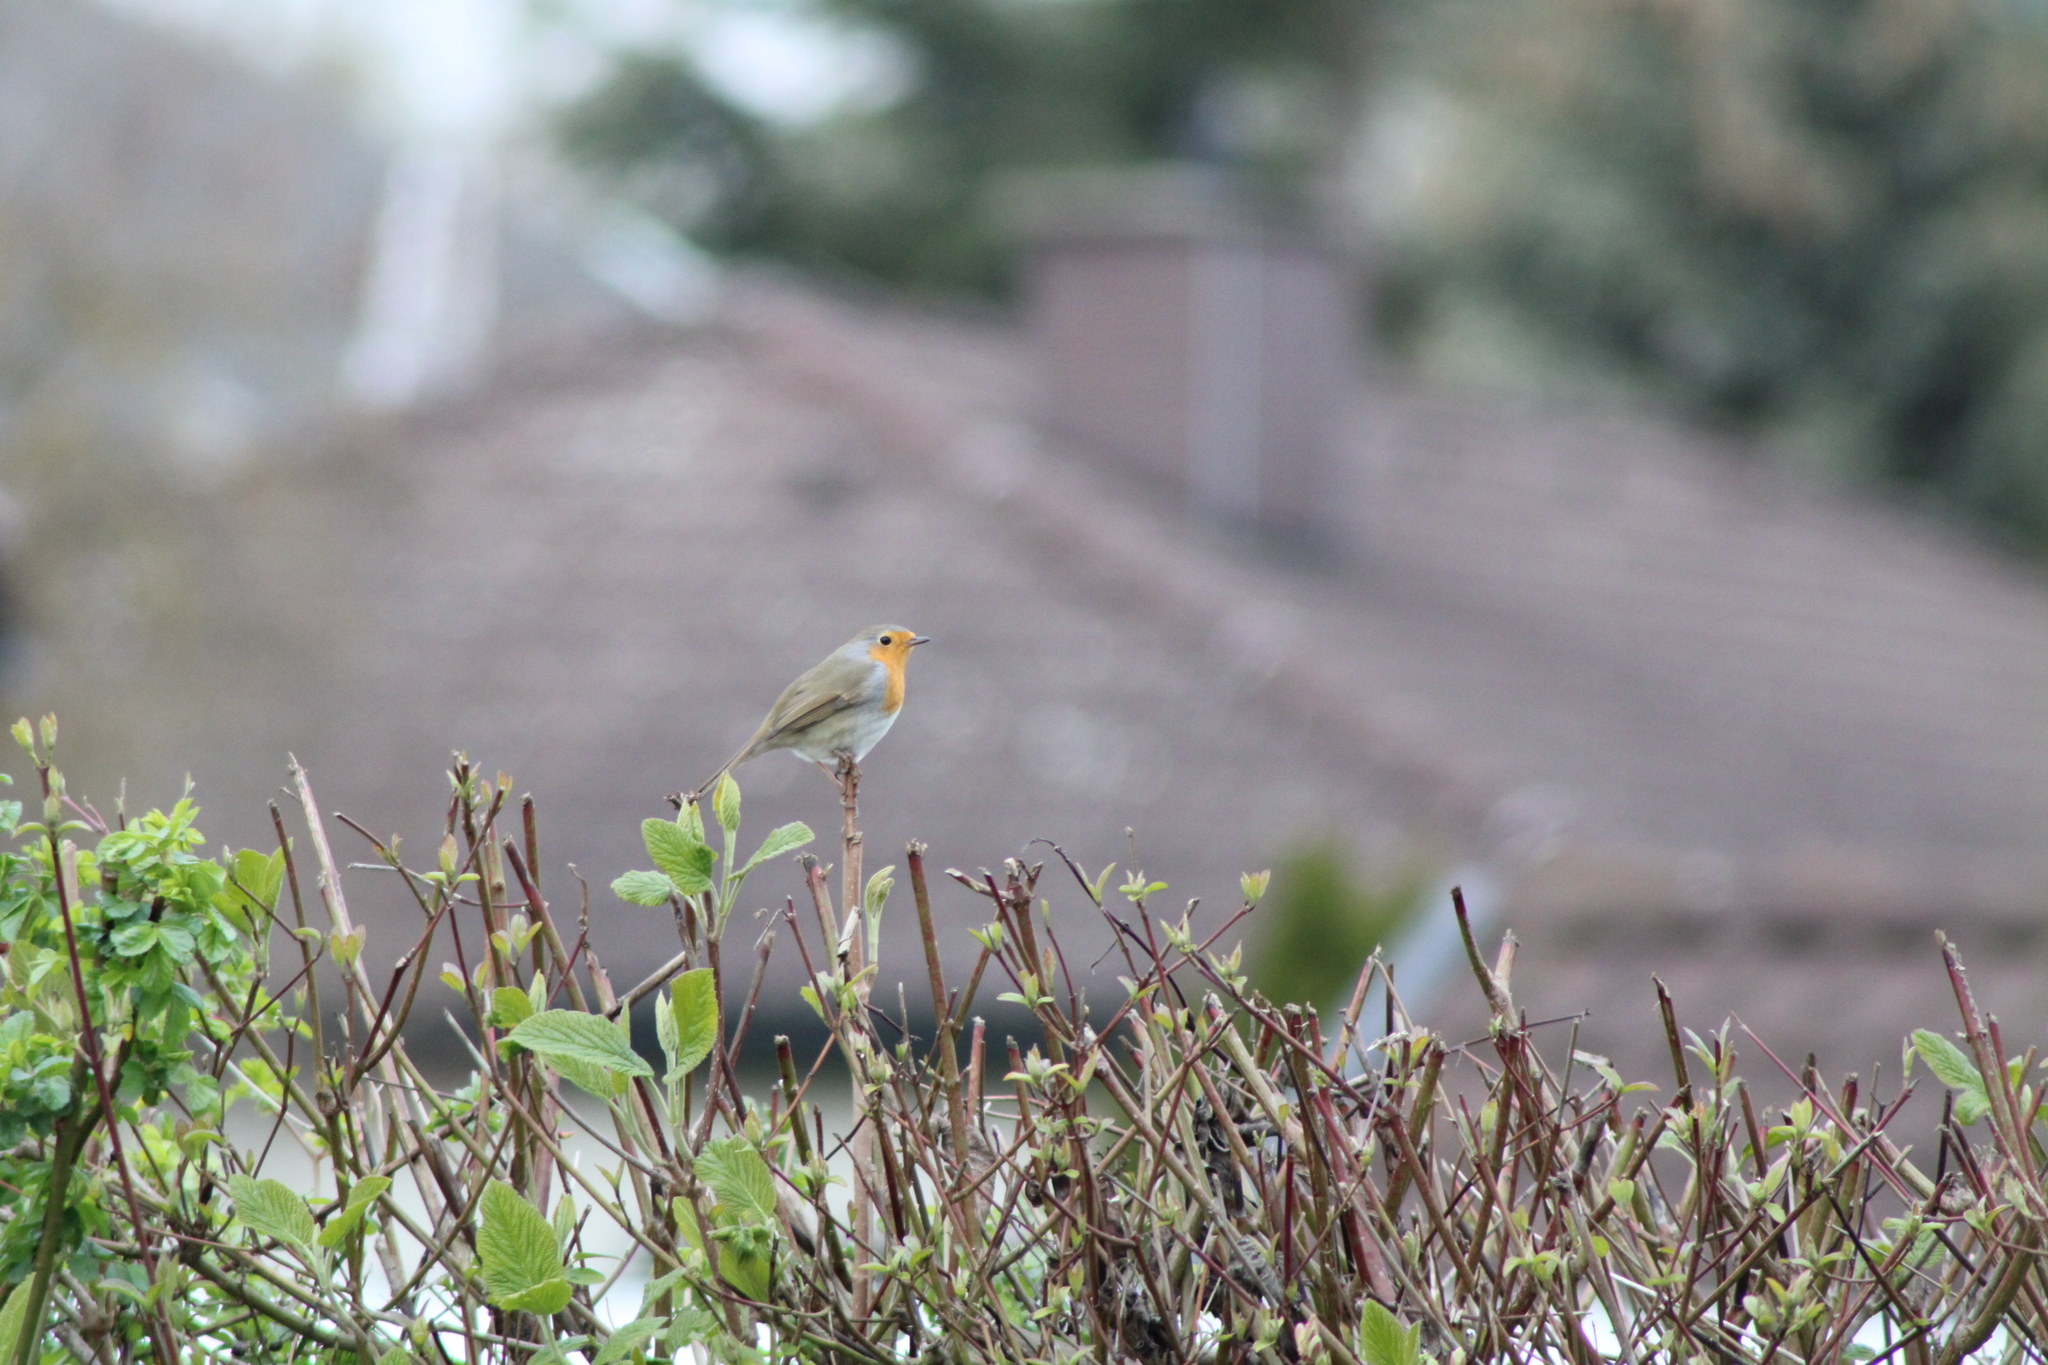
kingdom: Animalia
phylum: Chordata
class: Aves
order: Passeriformes
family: Muscicapidae
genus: Erithacus
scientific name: Erithacus rubecula
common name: European robin
